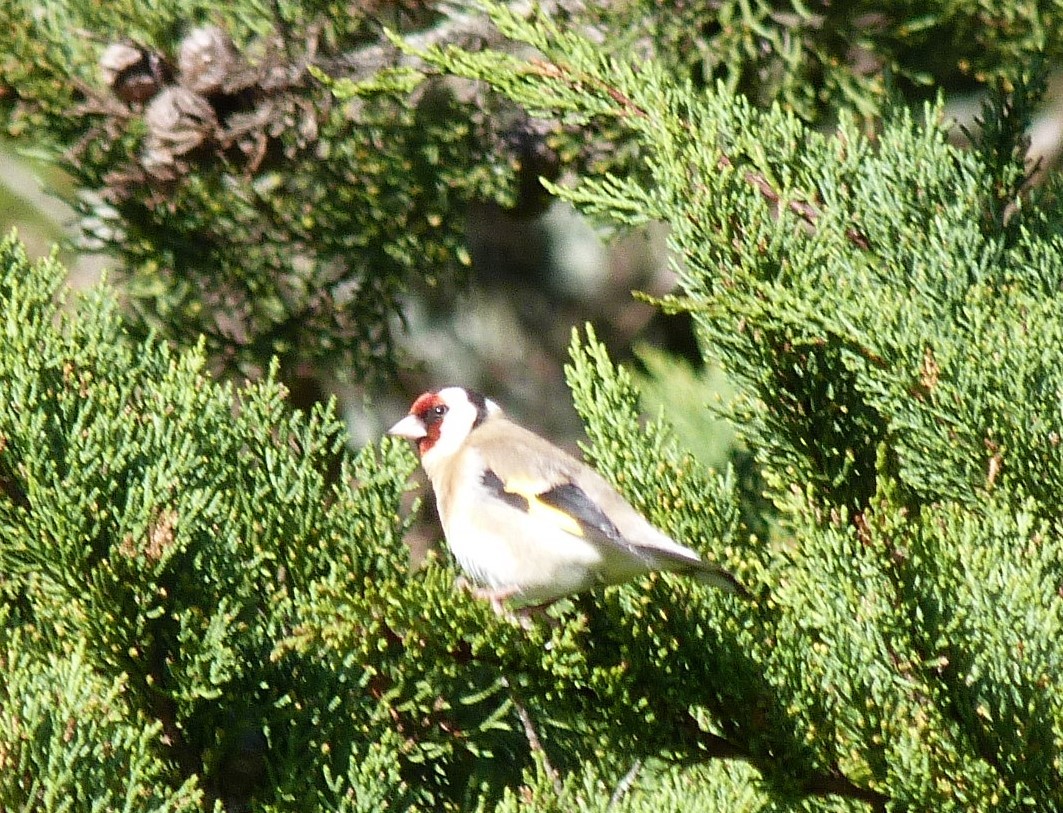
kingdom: Animalia
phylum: Chordata
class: Aves
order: Passeriformes
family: Fringillidae
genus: Carduelis
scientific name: Carduelis carduelis
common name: European goldfinch
